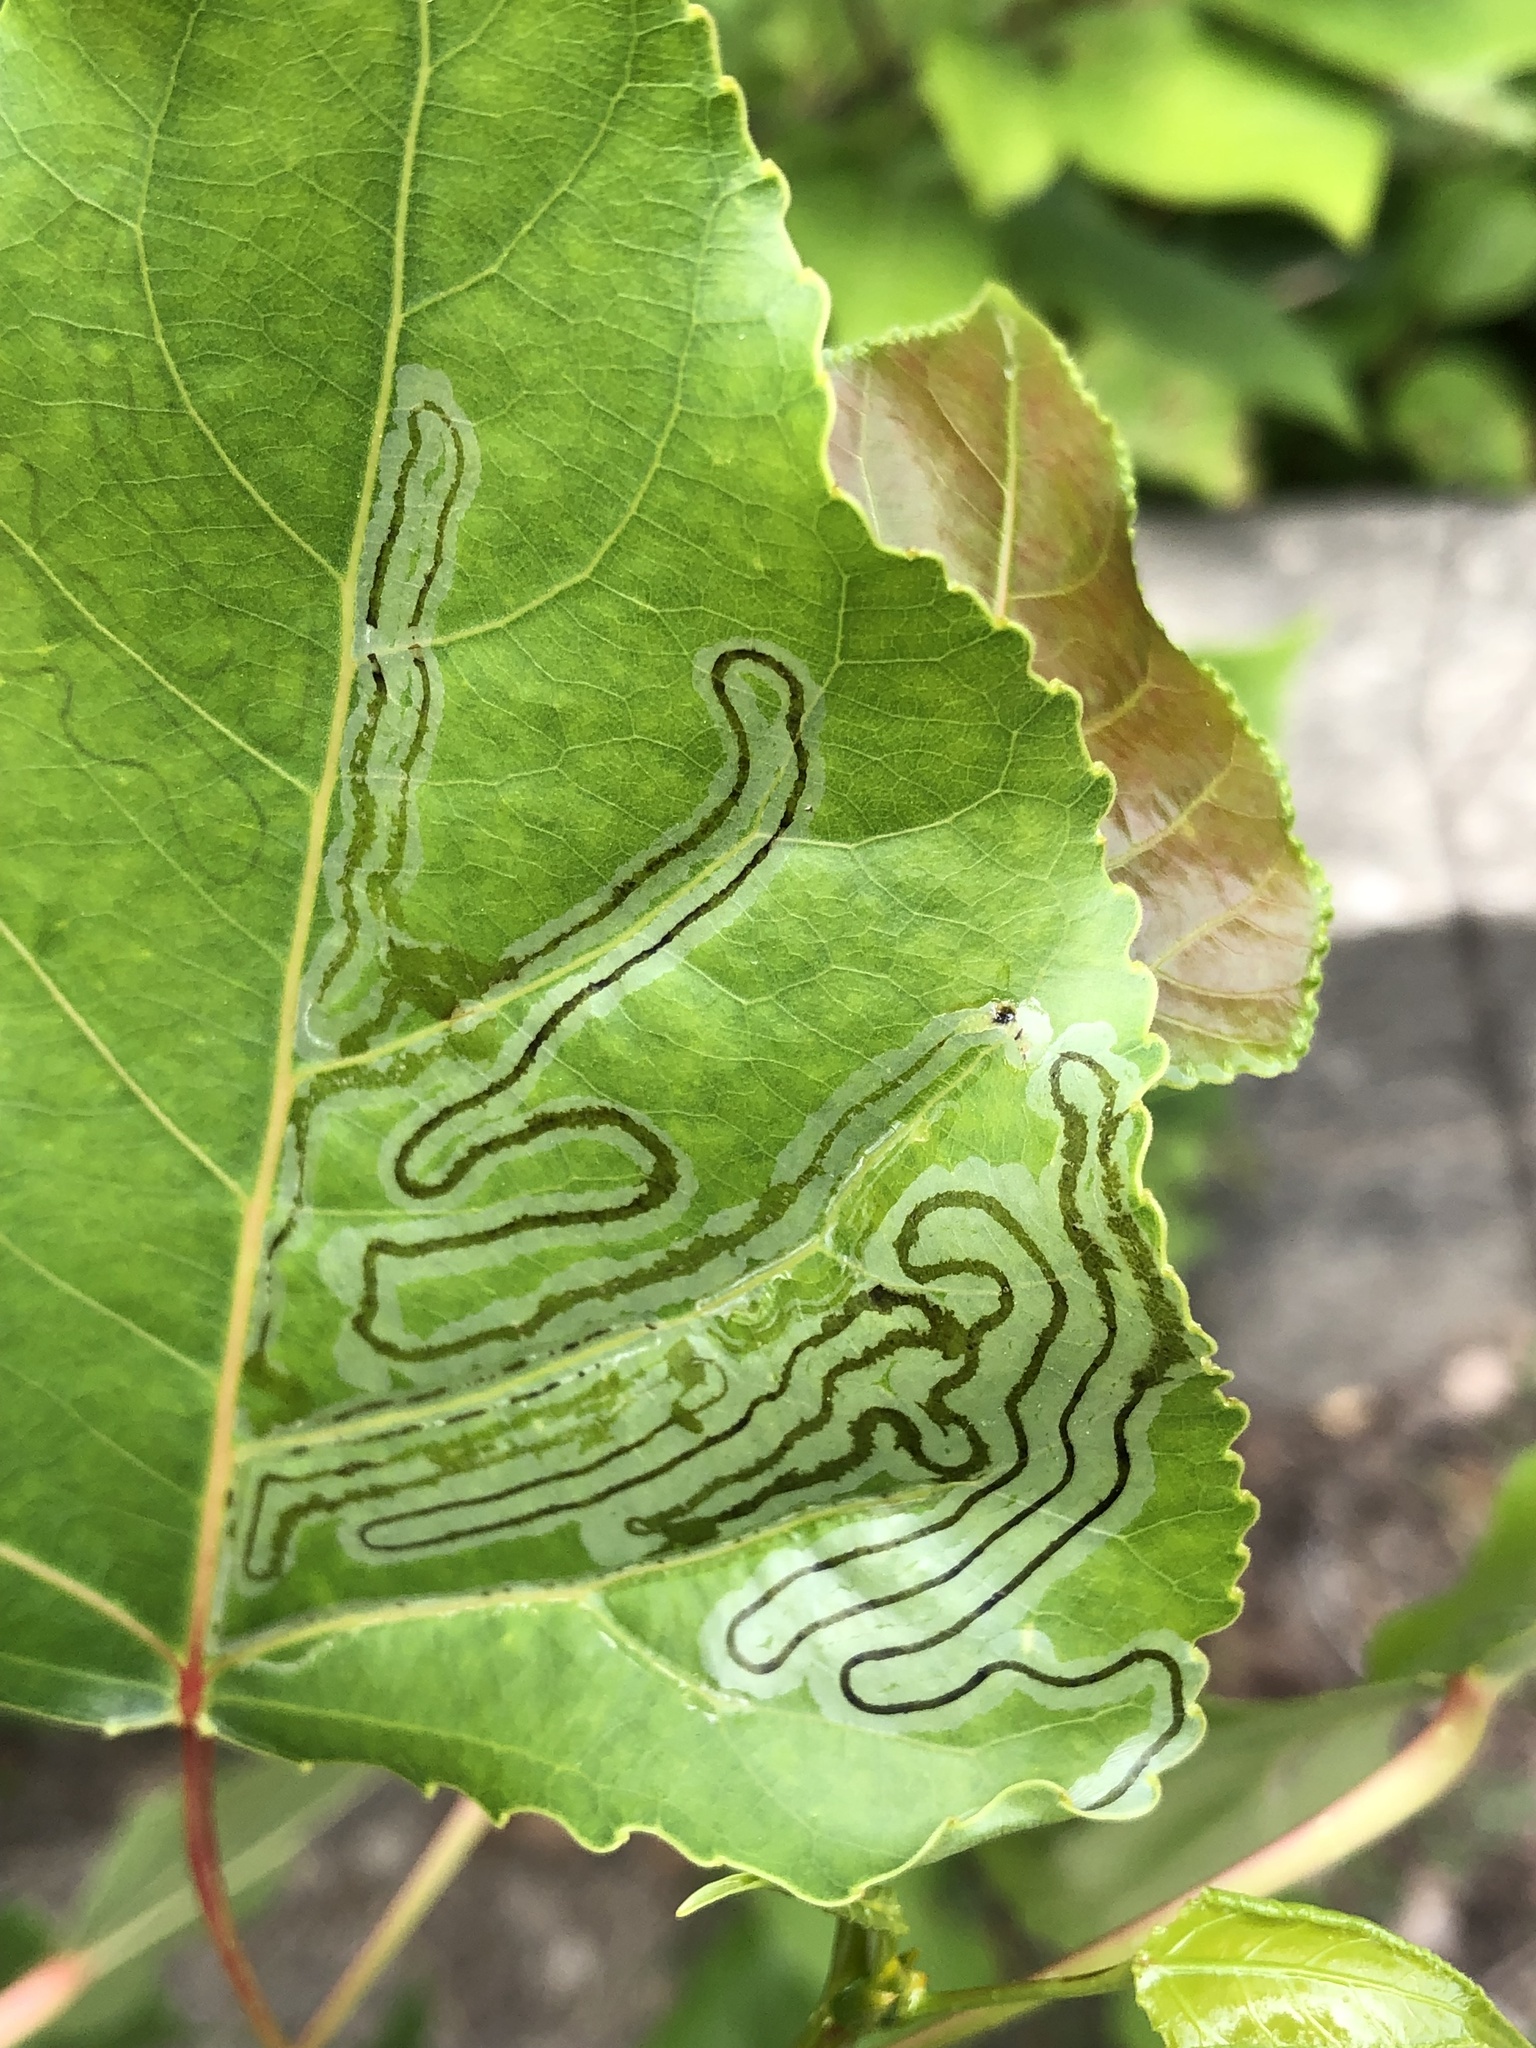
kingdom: Animalia
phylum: Arthropoda
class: Insecta
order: Lepidoptera
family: Gracillariidae
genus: Phyllocnistis
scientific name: Phyllocnistis populiella
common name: Aspen serpentine leafminer moth
